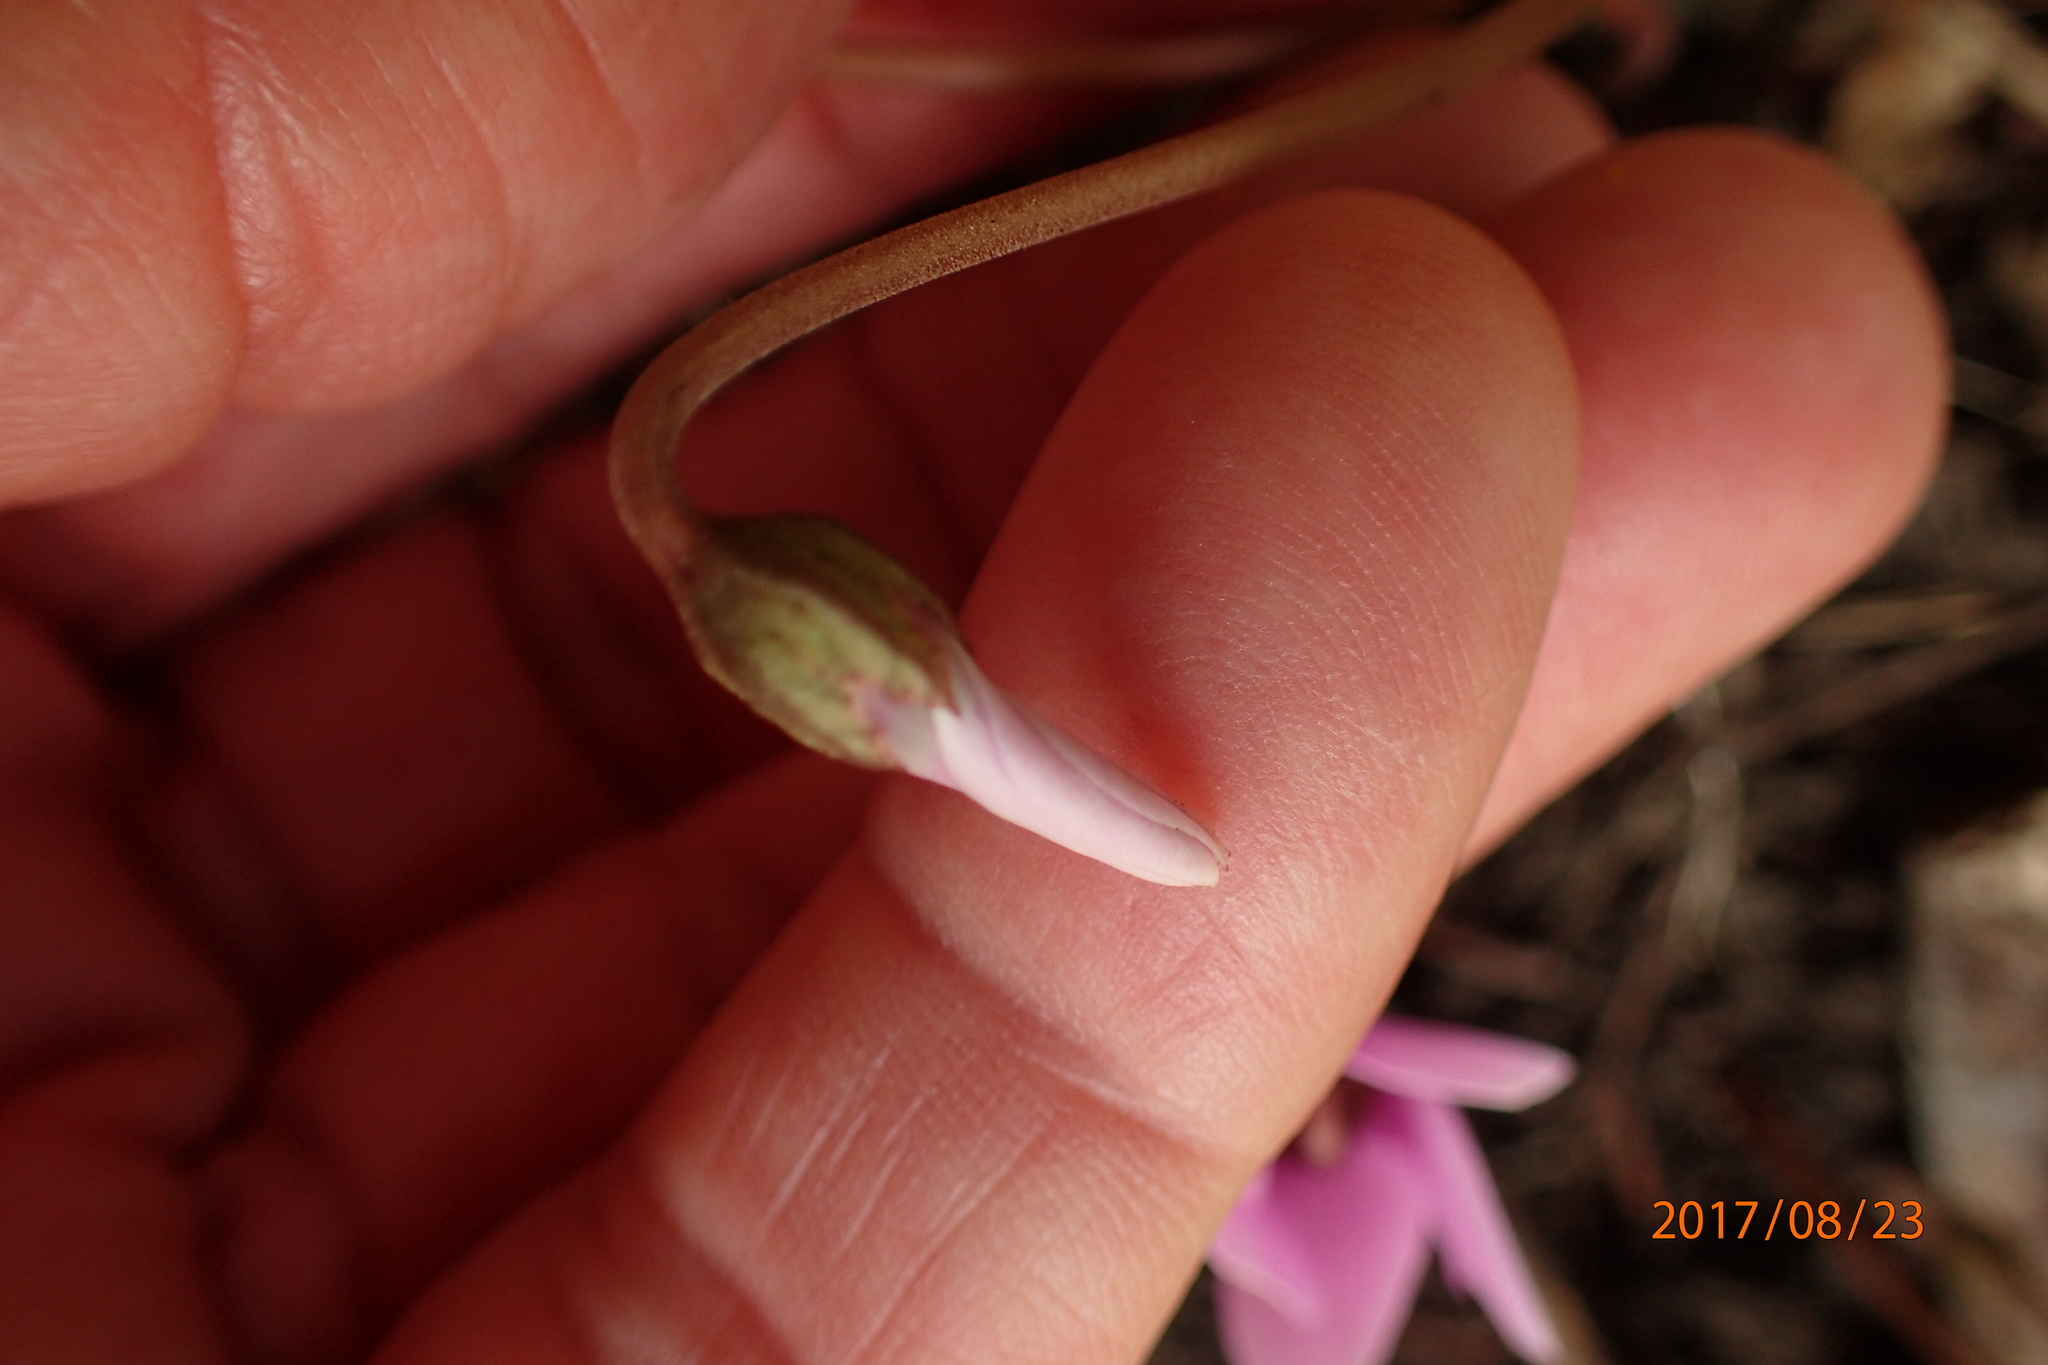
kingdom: Plantae
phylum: Tracheophyta
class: Magnoliopsida
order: Ericales
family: Primulaceae
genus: Cyclamen
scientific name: Cyclamen hederifolium
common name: Sowbread
